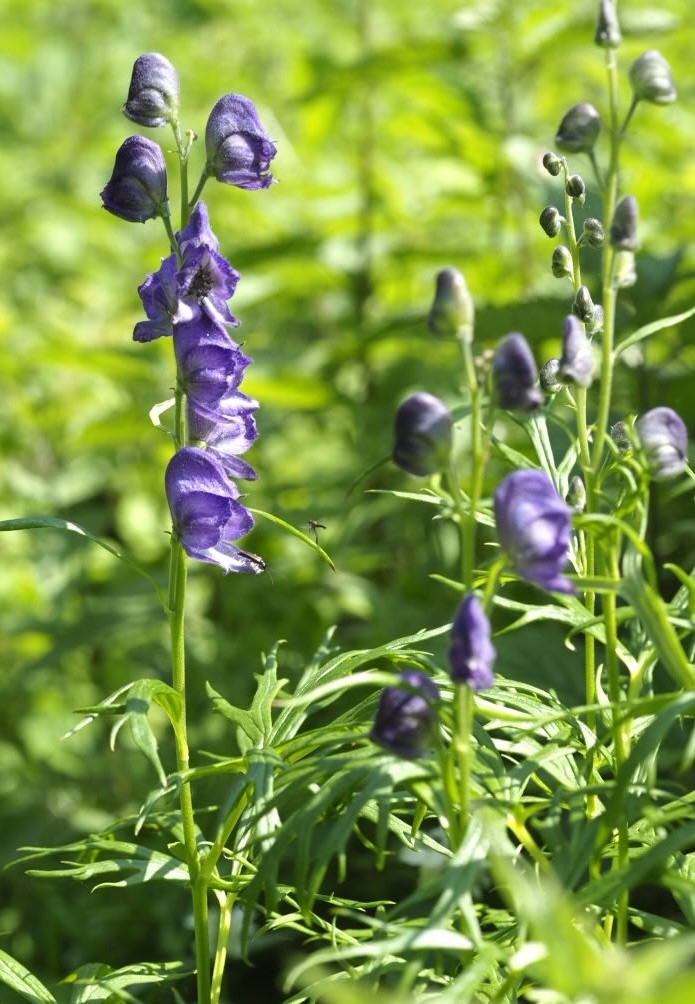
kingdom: Plantae
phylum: Tracheophyta
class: Magnoliopsida
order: Ranunculales
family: Ranunculaceae
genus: Aconitum
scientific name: Aconitum napellus
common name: Garden monkshood
